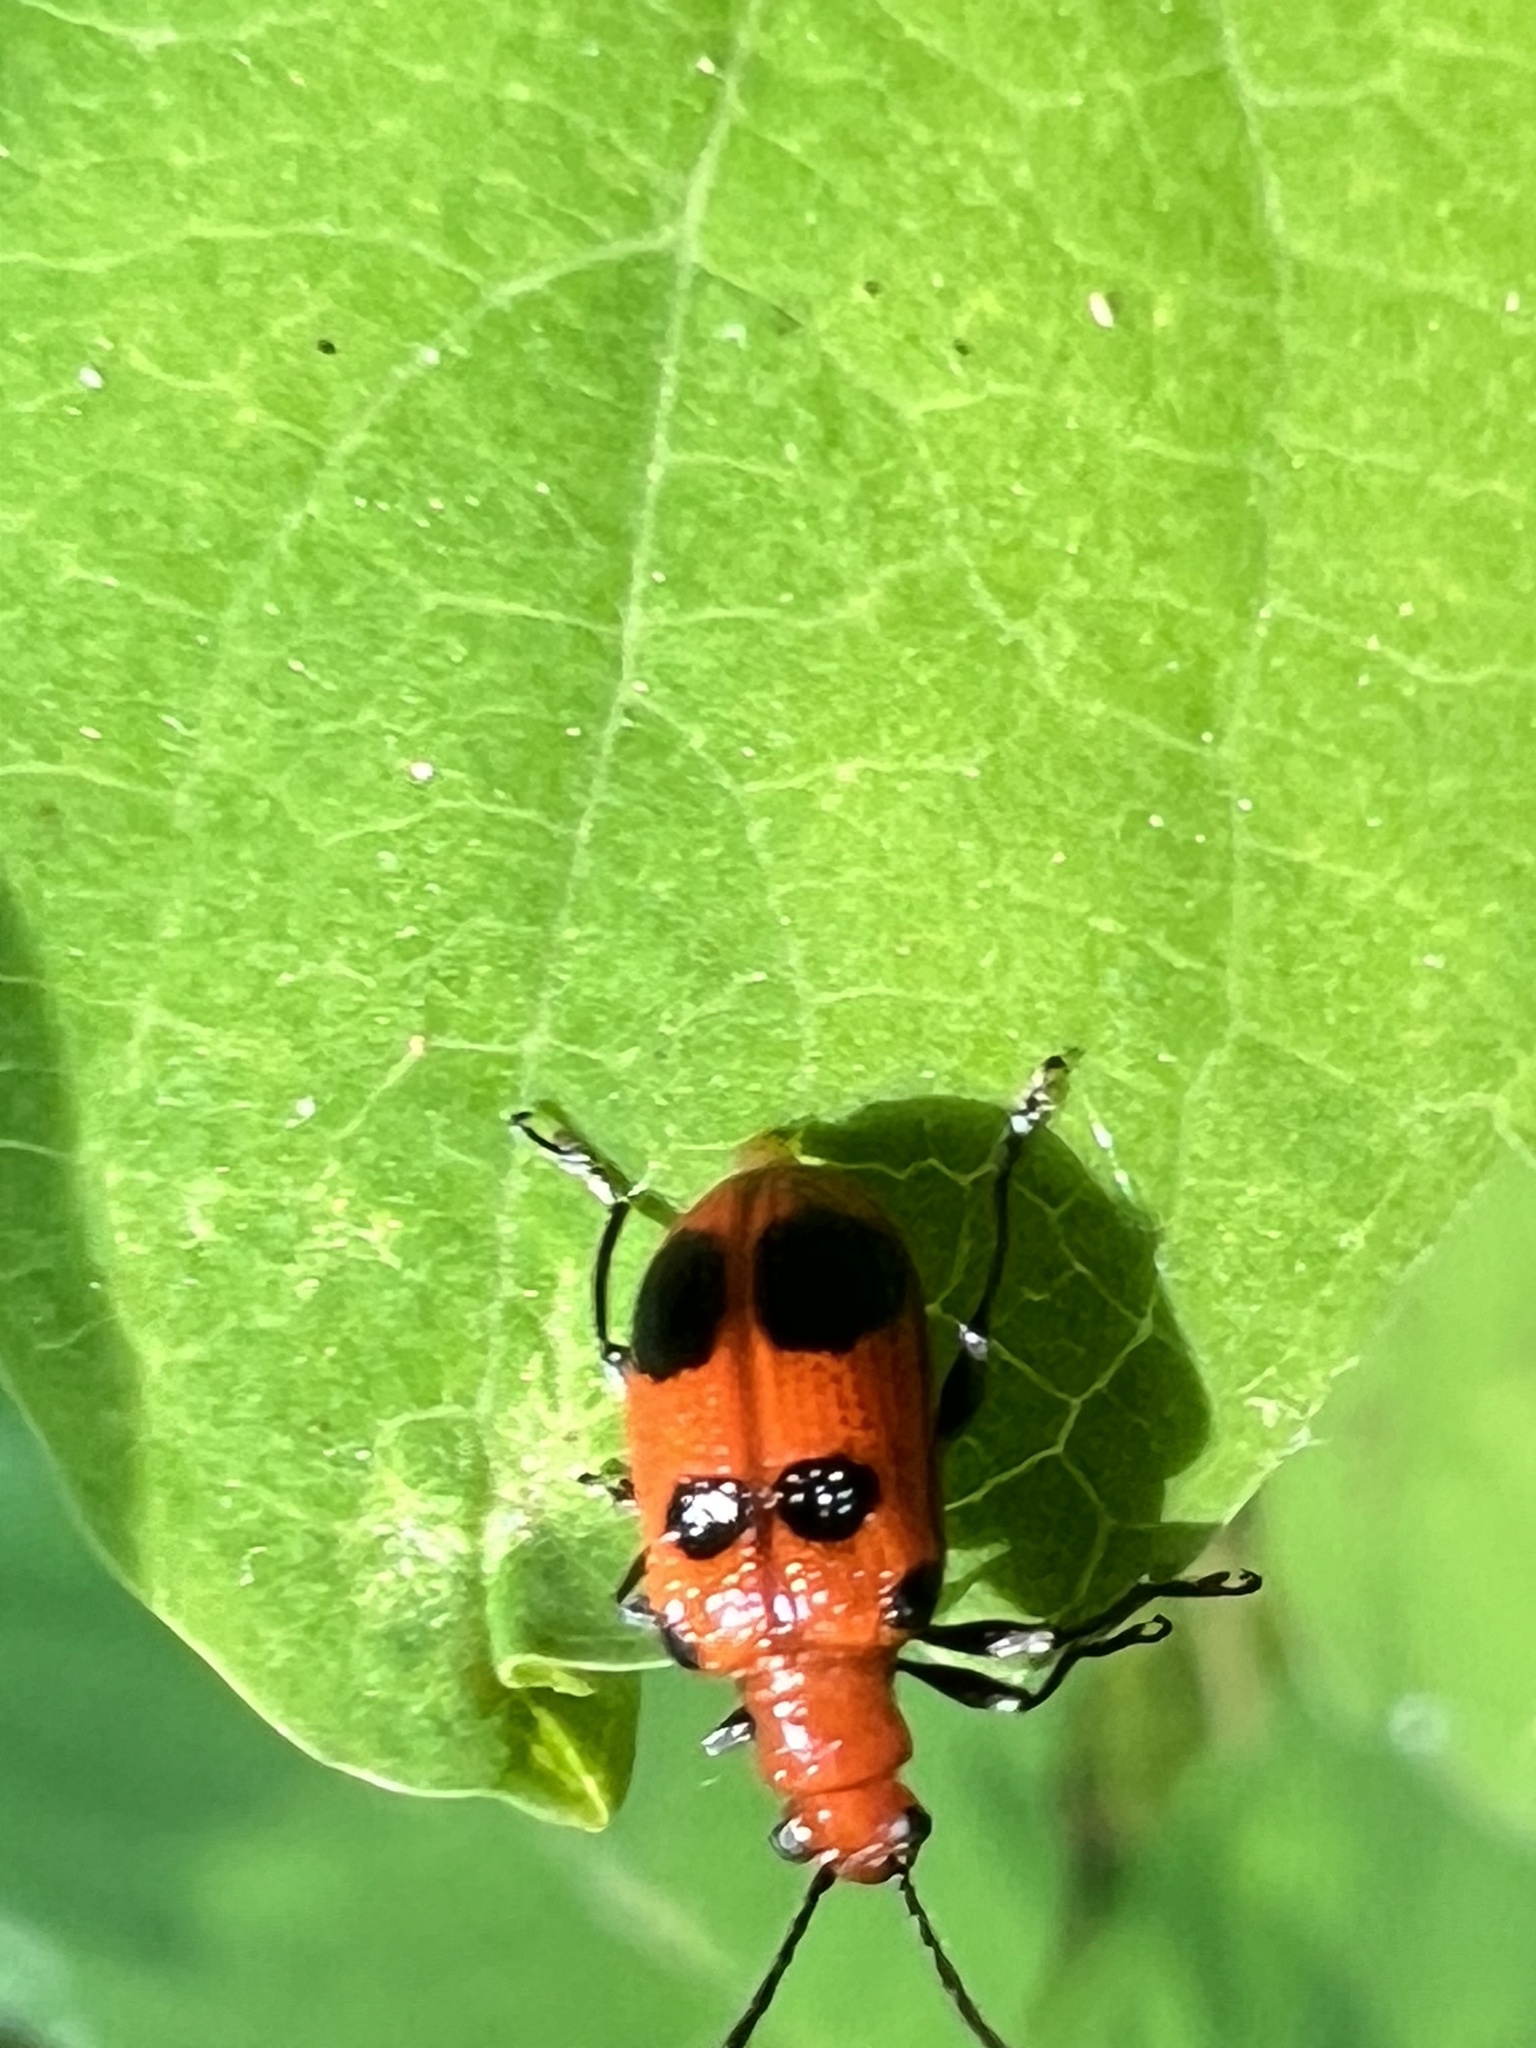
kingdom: Animalia
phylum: Arthropoda
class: Insecta
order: Coleoptera
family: Chrysomelidae
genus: Neolema
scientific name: Neolema sexpunctata
